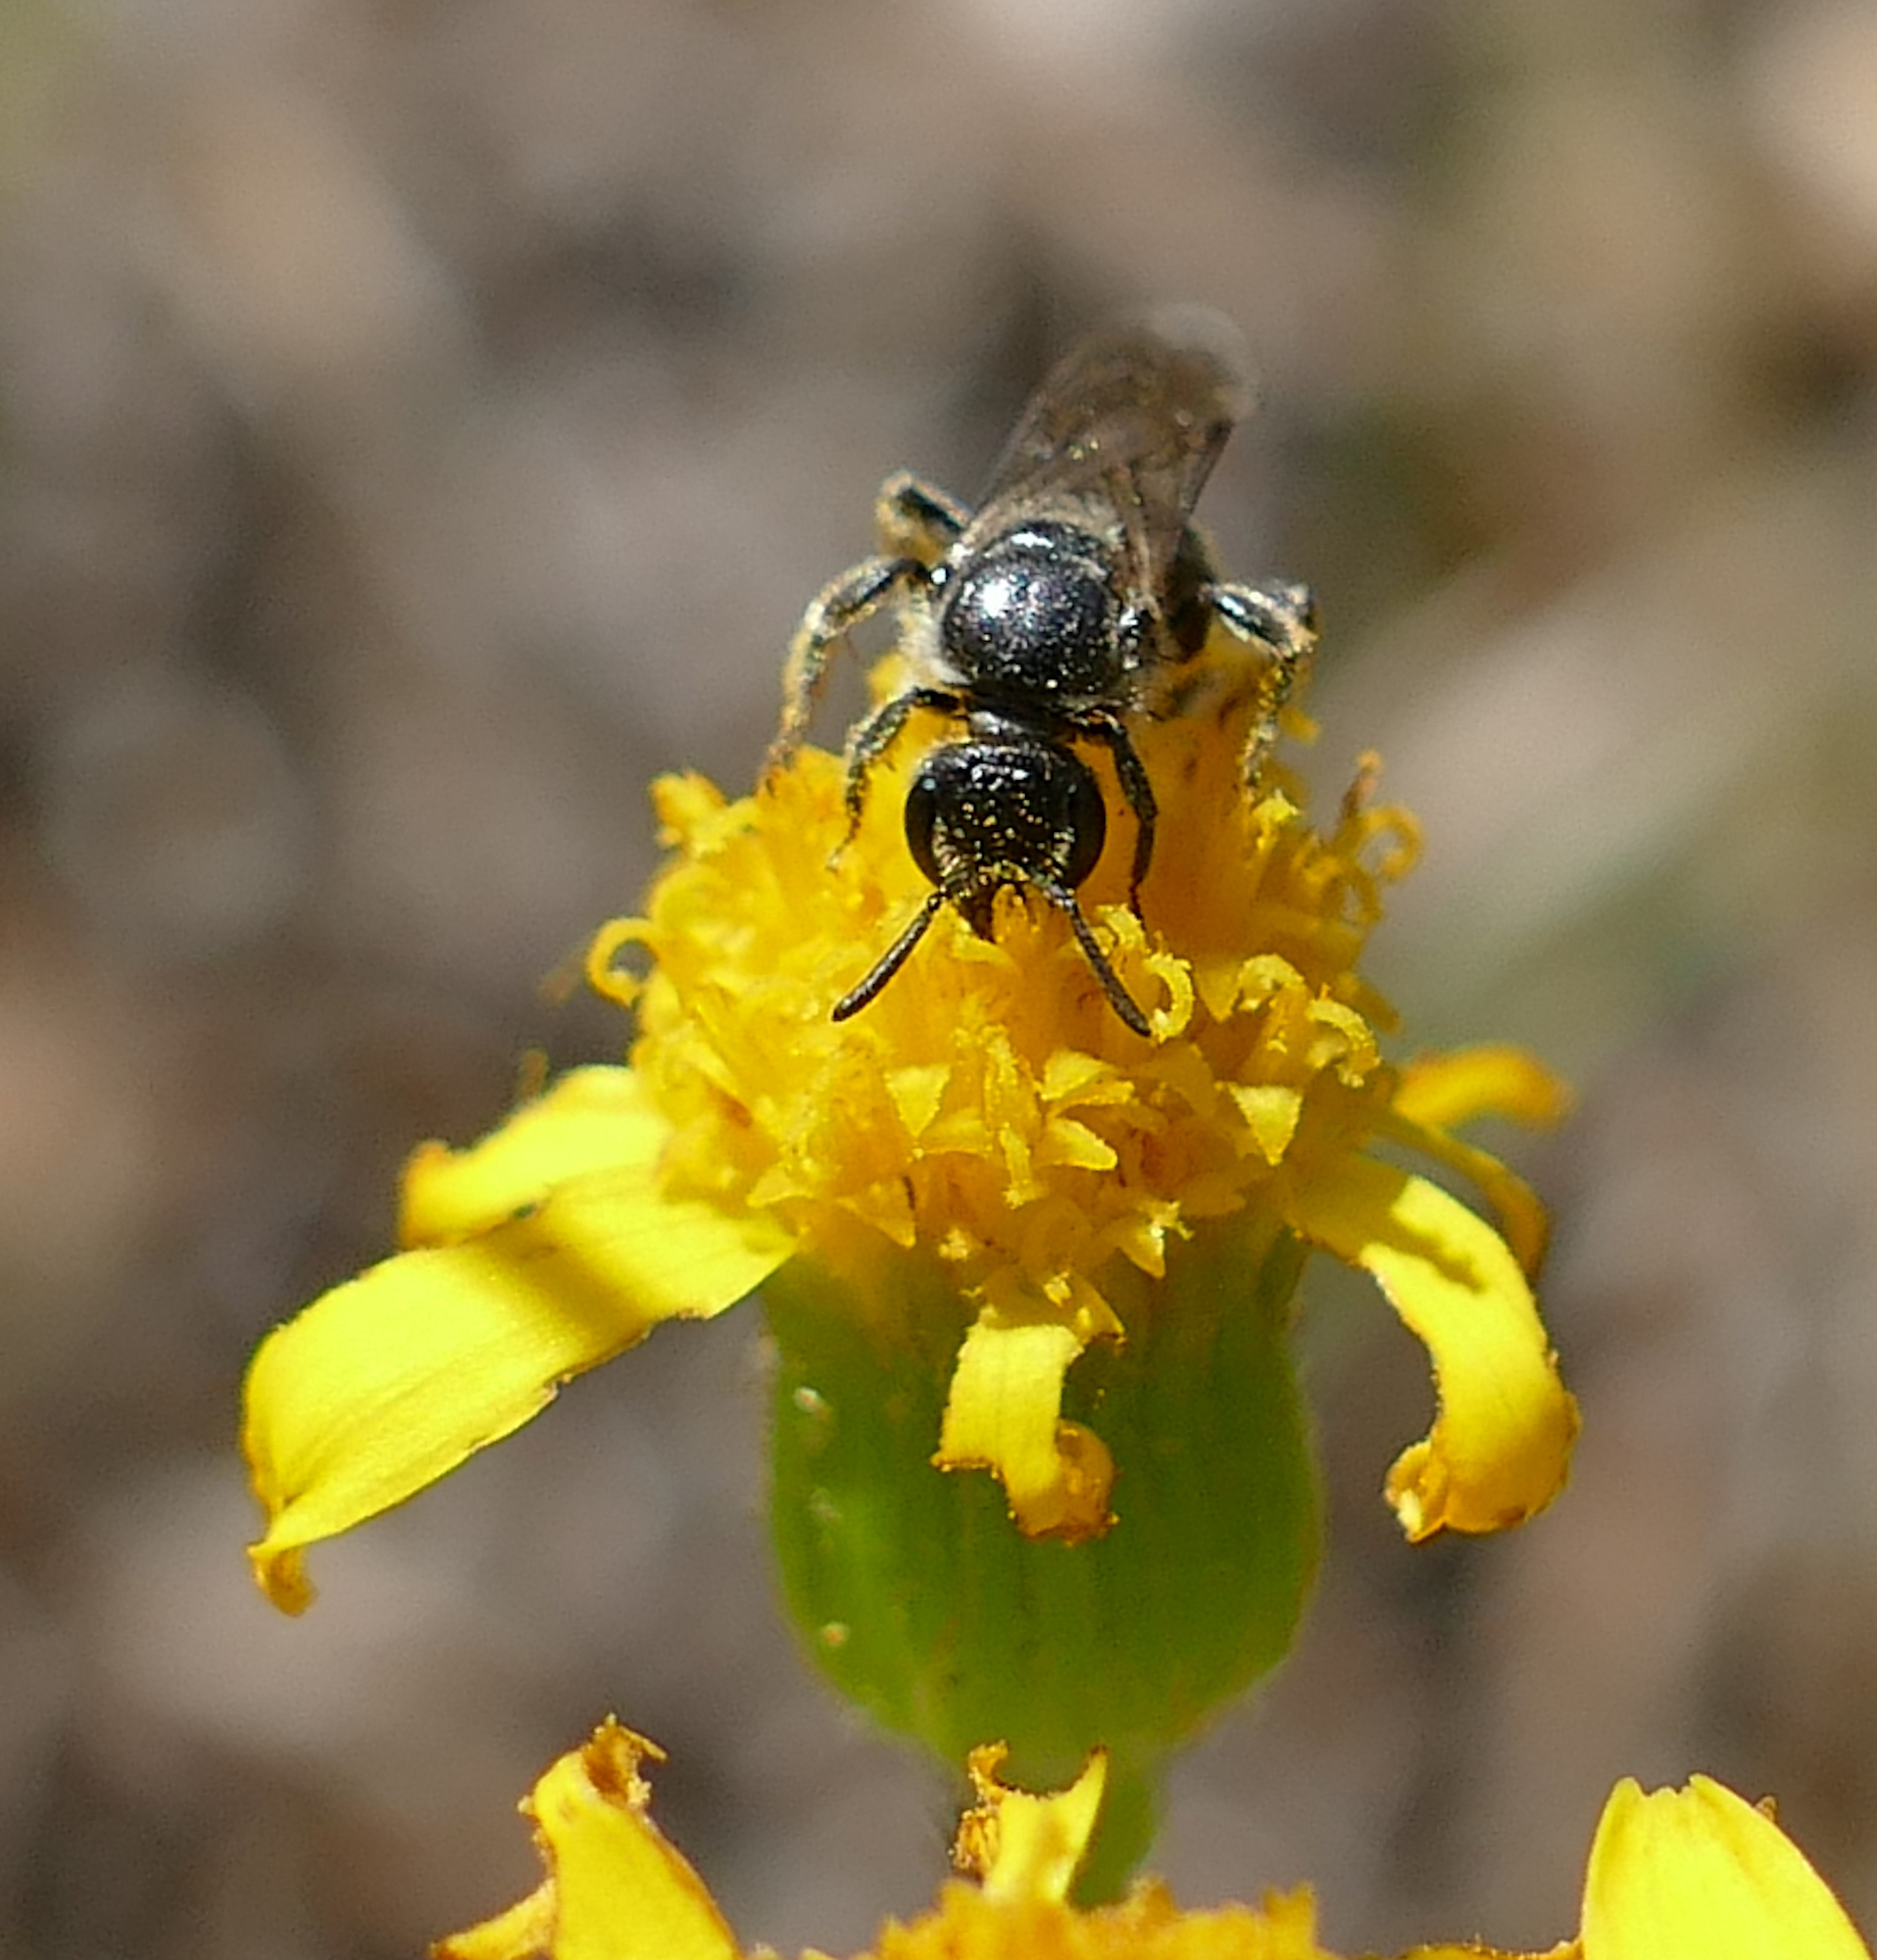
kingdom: Animalia
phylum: Arthropoda
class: Insecta
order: Hymenoptera
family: Halictidae
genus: Lasioglossum
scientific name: Lasioglossum
